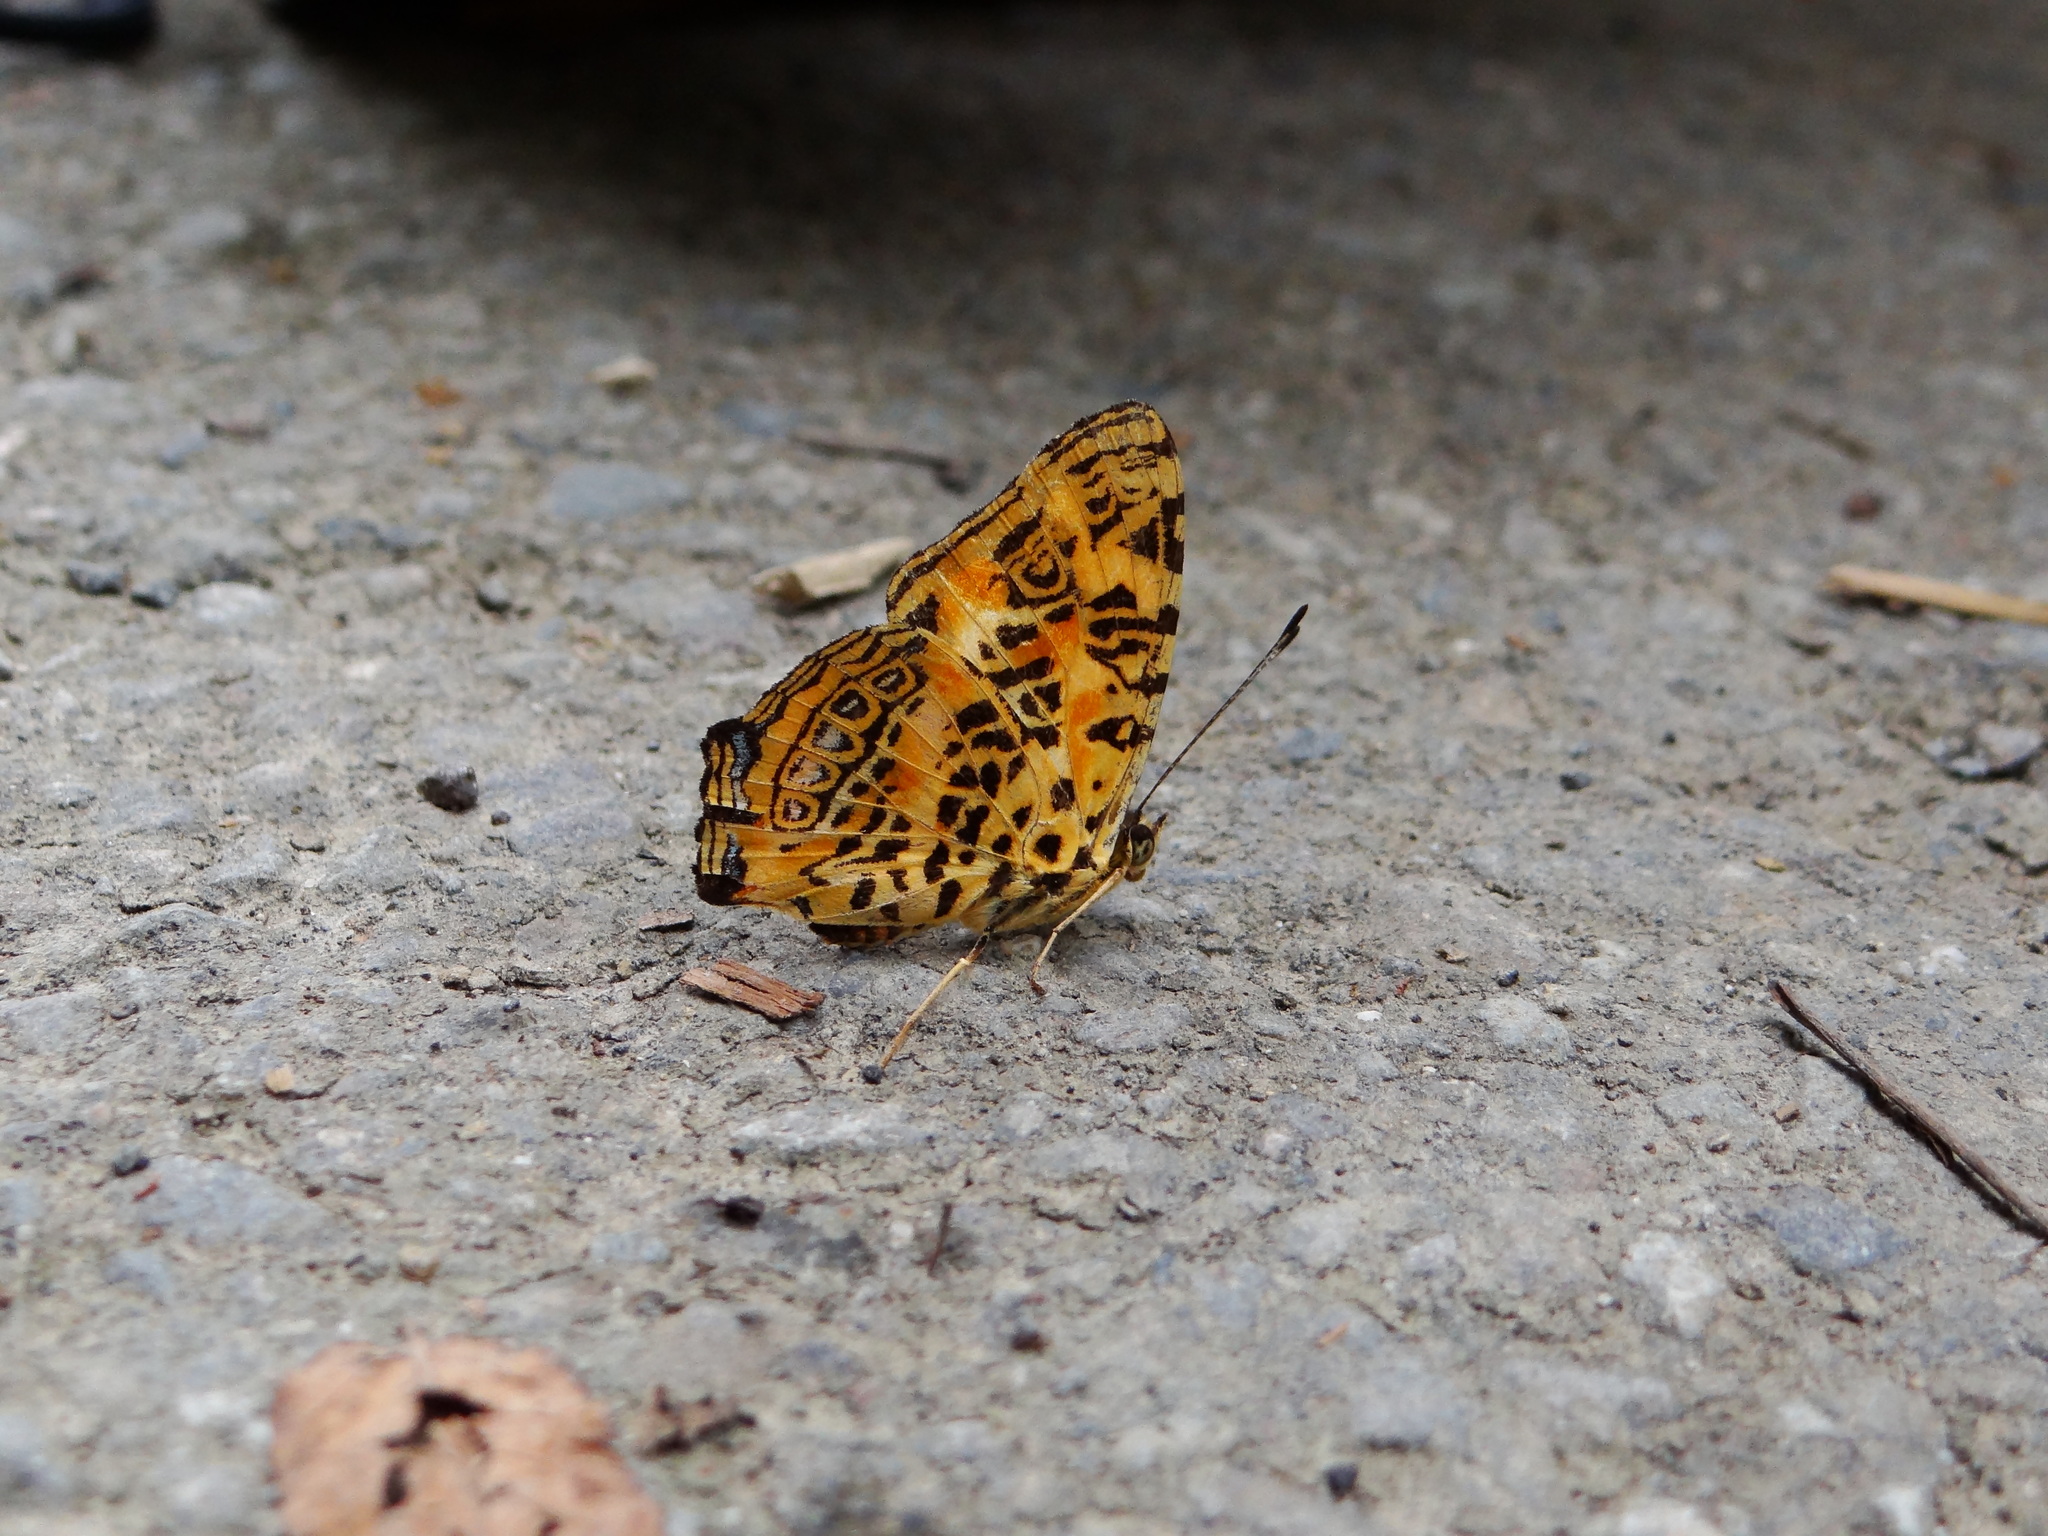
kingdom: Animalia
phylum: Arthropoda
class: Insecta
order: Lepidoptera
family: Nymphalidae
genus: Symbrenthia
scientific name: Symbrenthia brabira
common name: Yellow jester
